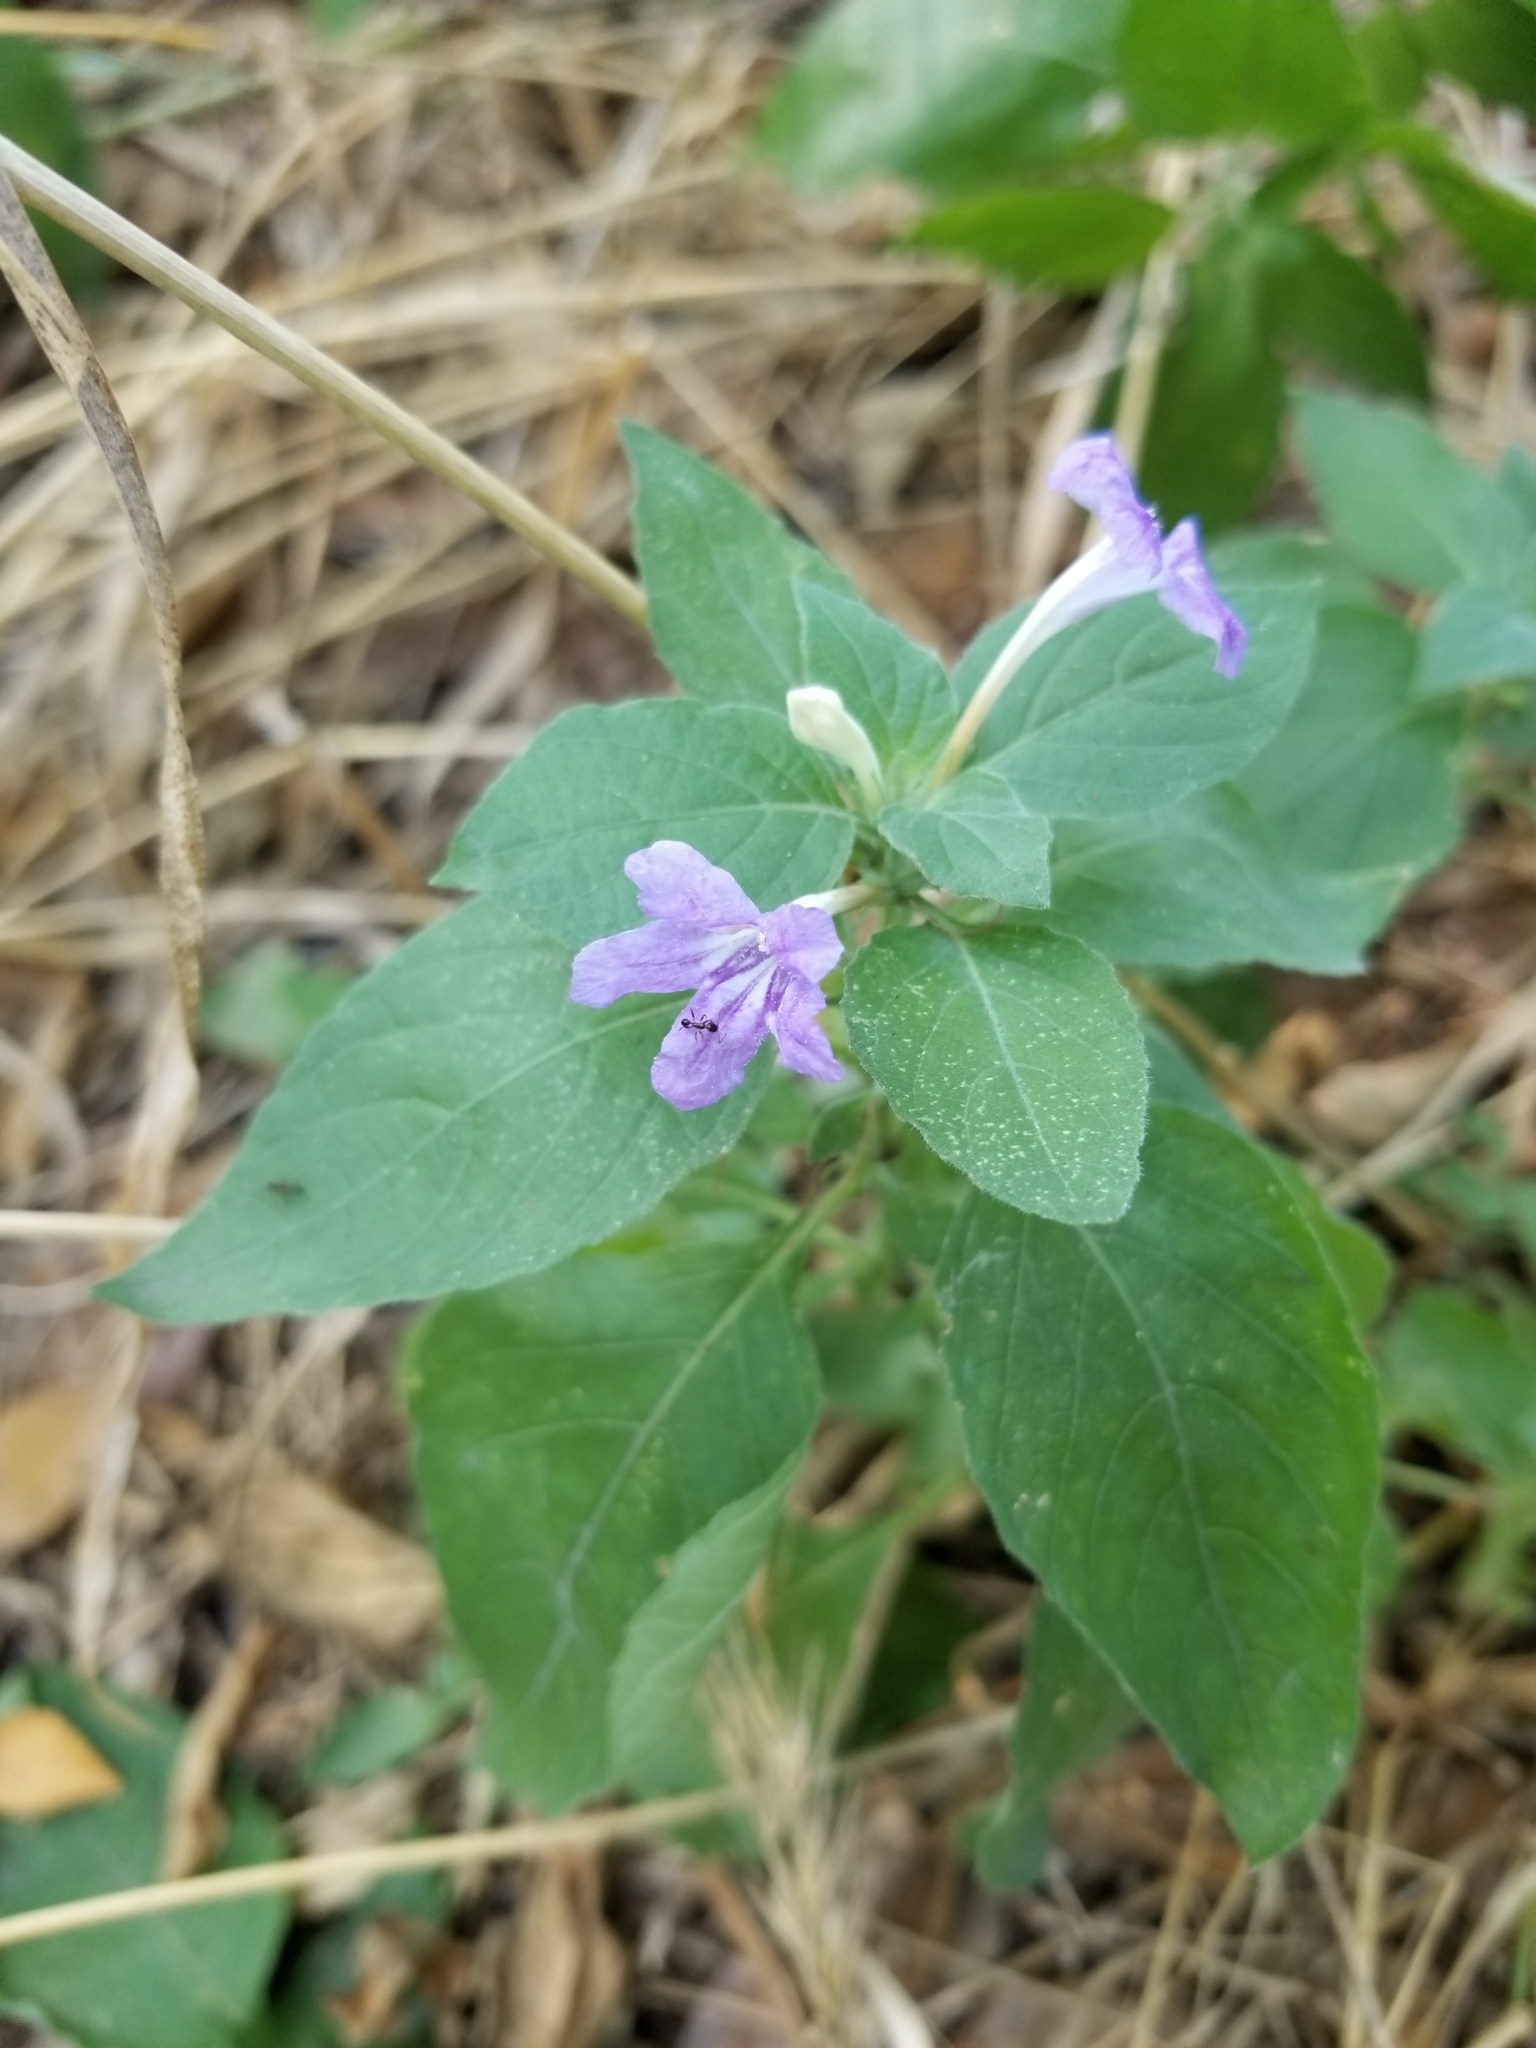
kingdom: Plantae
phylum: Tracheophyta
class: Magnoliopsida
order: Lamiales
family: Acanthaceae
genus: Ruellia
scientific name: Ruellia drummondiana
